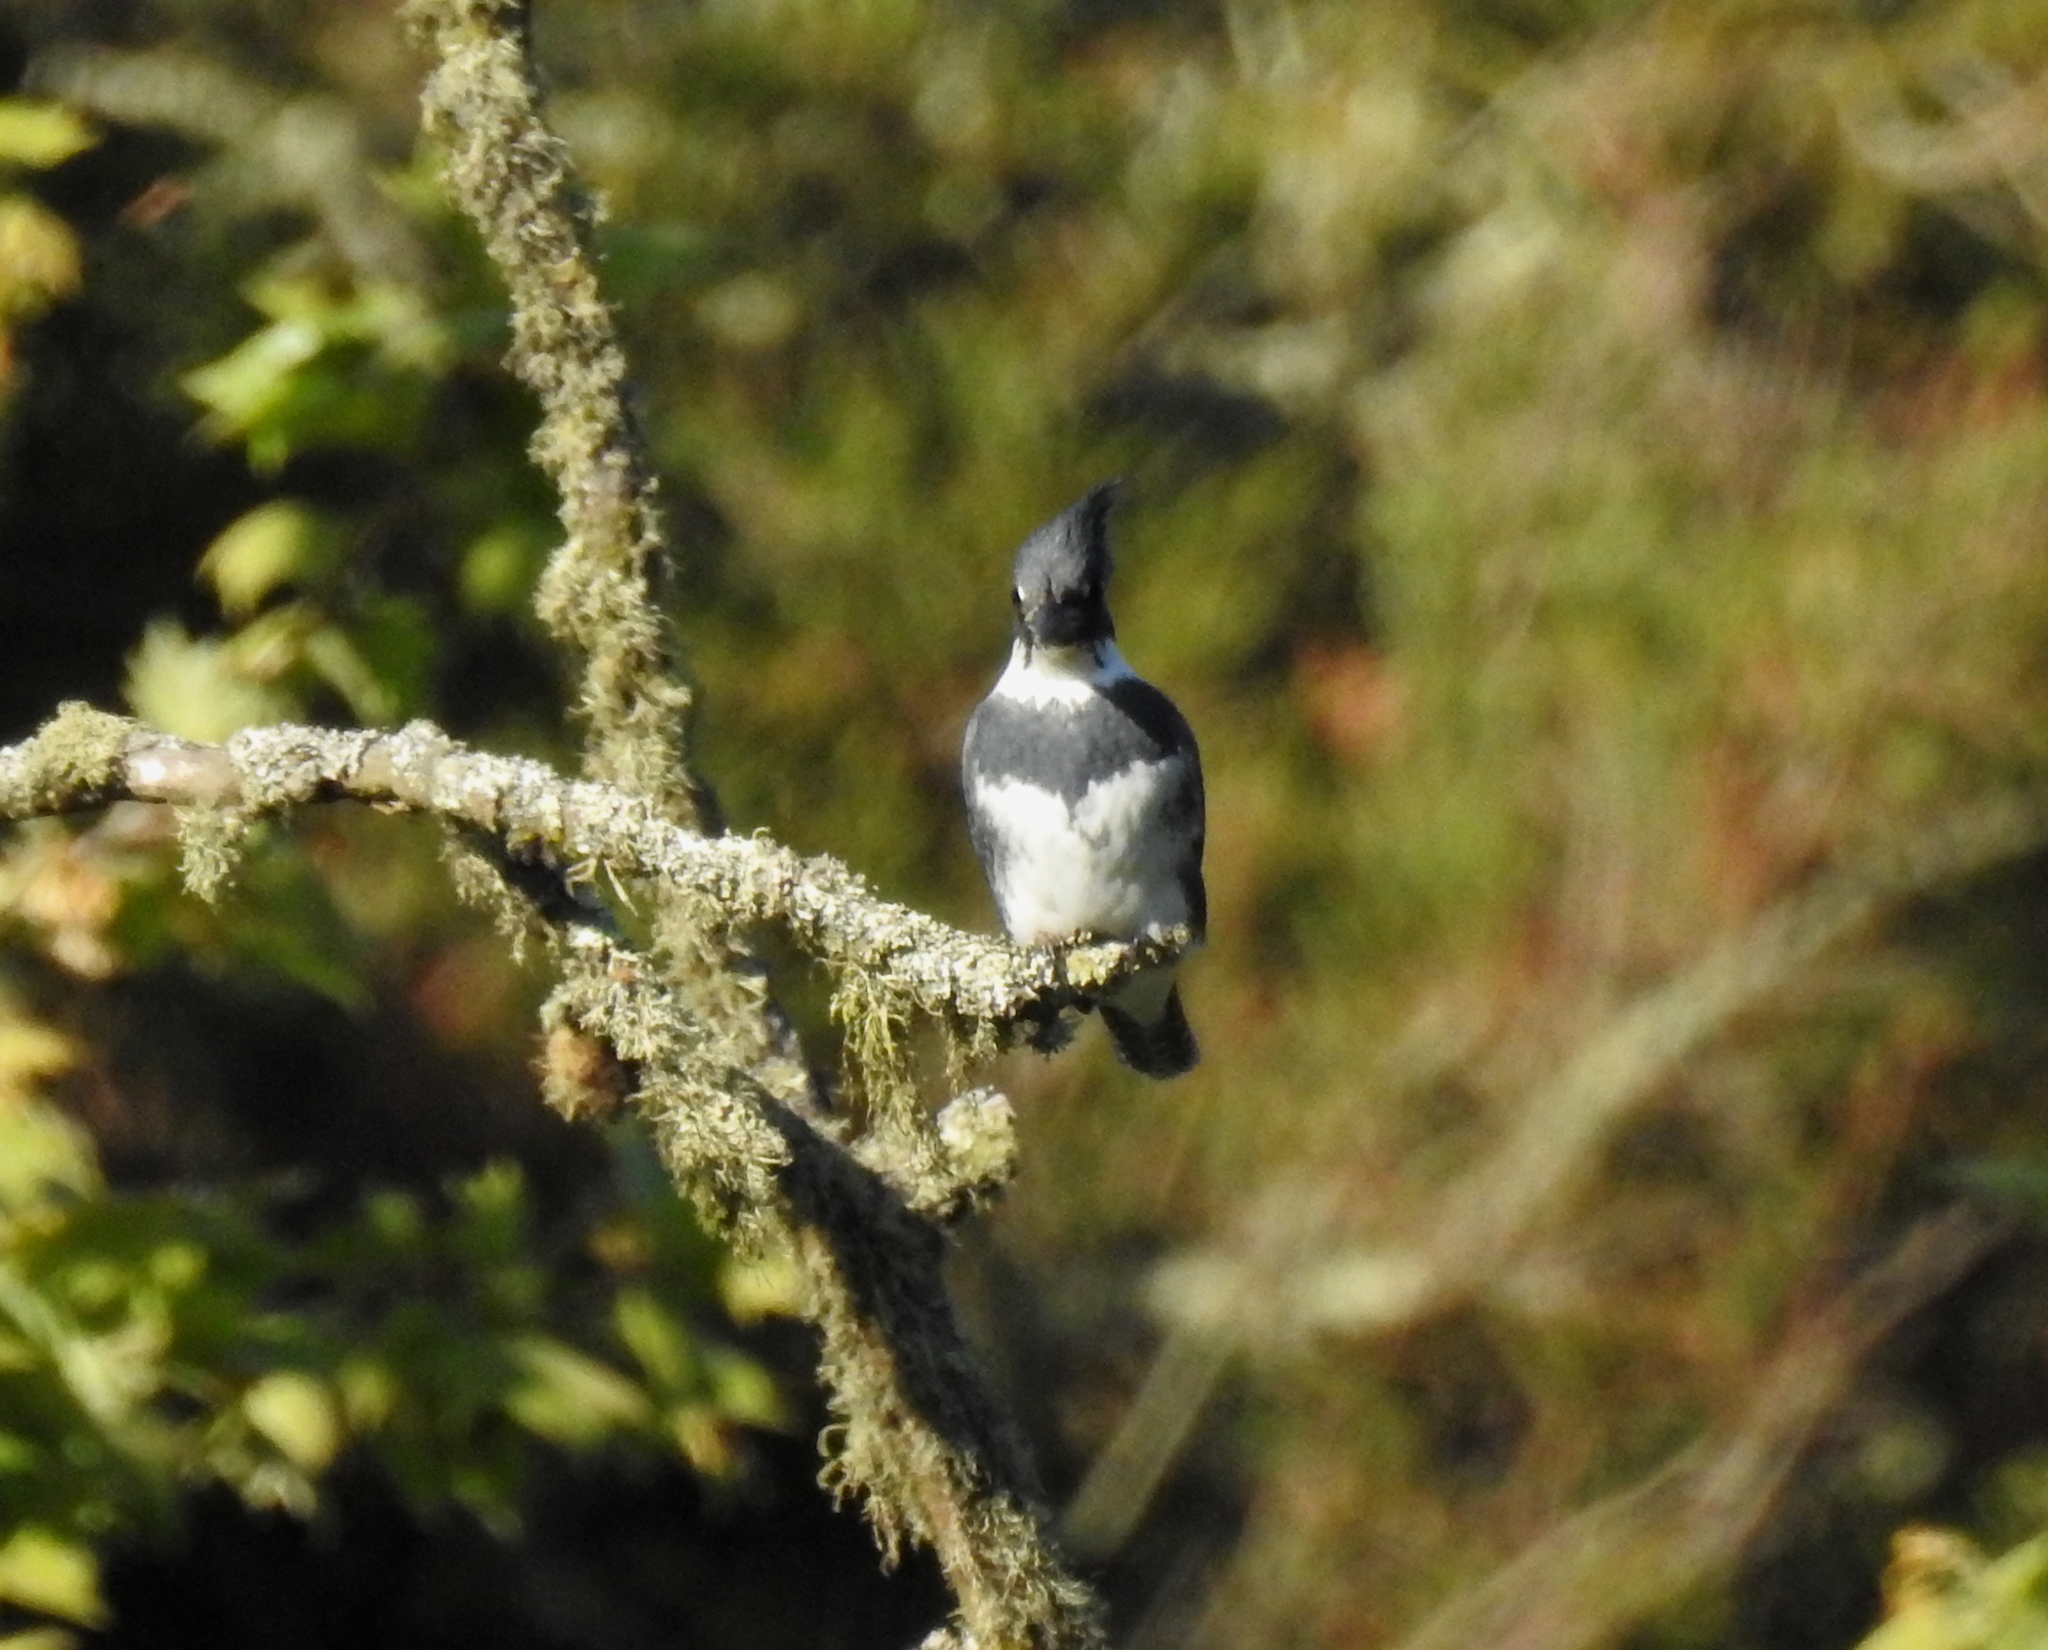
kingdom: Animalia
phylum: Chordata
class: Aves
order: Coraciiformes
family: Alcedinidae
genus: Megaceryle
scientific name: Megaceryle alcyon
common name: Belted kingfisher
